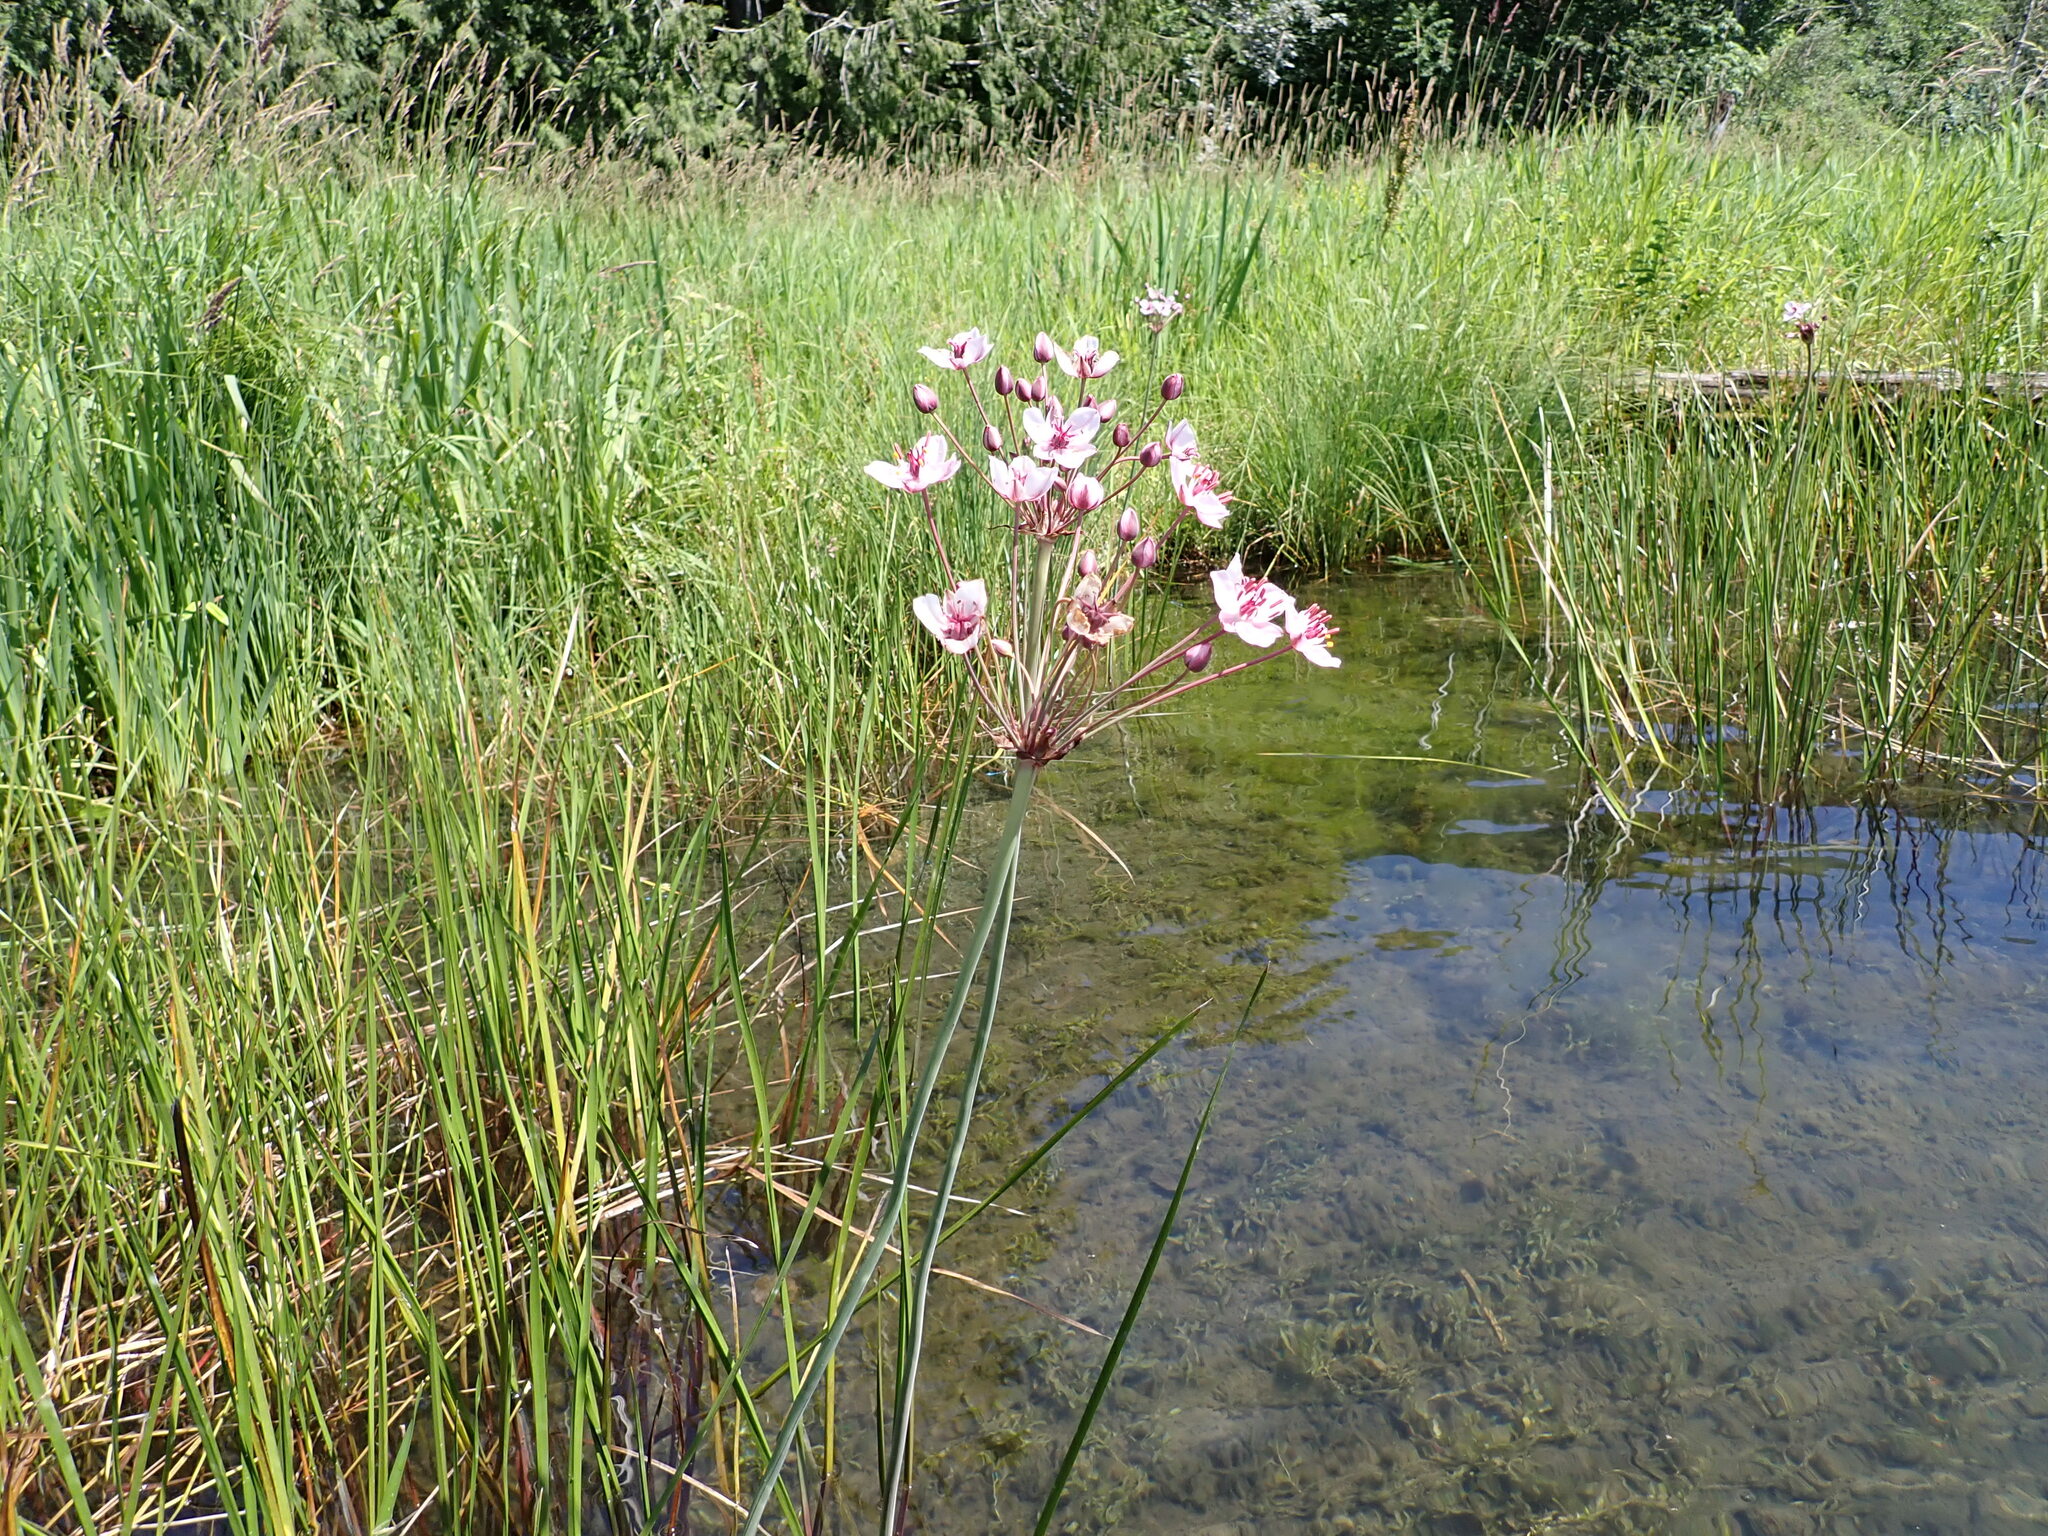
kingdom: Plantae
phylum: Tracheophyta
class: Liliopsida
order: Alismatales
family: Butomaceae
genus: Butomus
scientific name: Butomus umbellatus
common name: Flowering-rush
